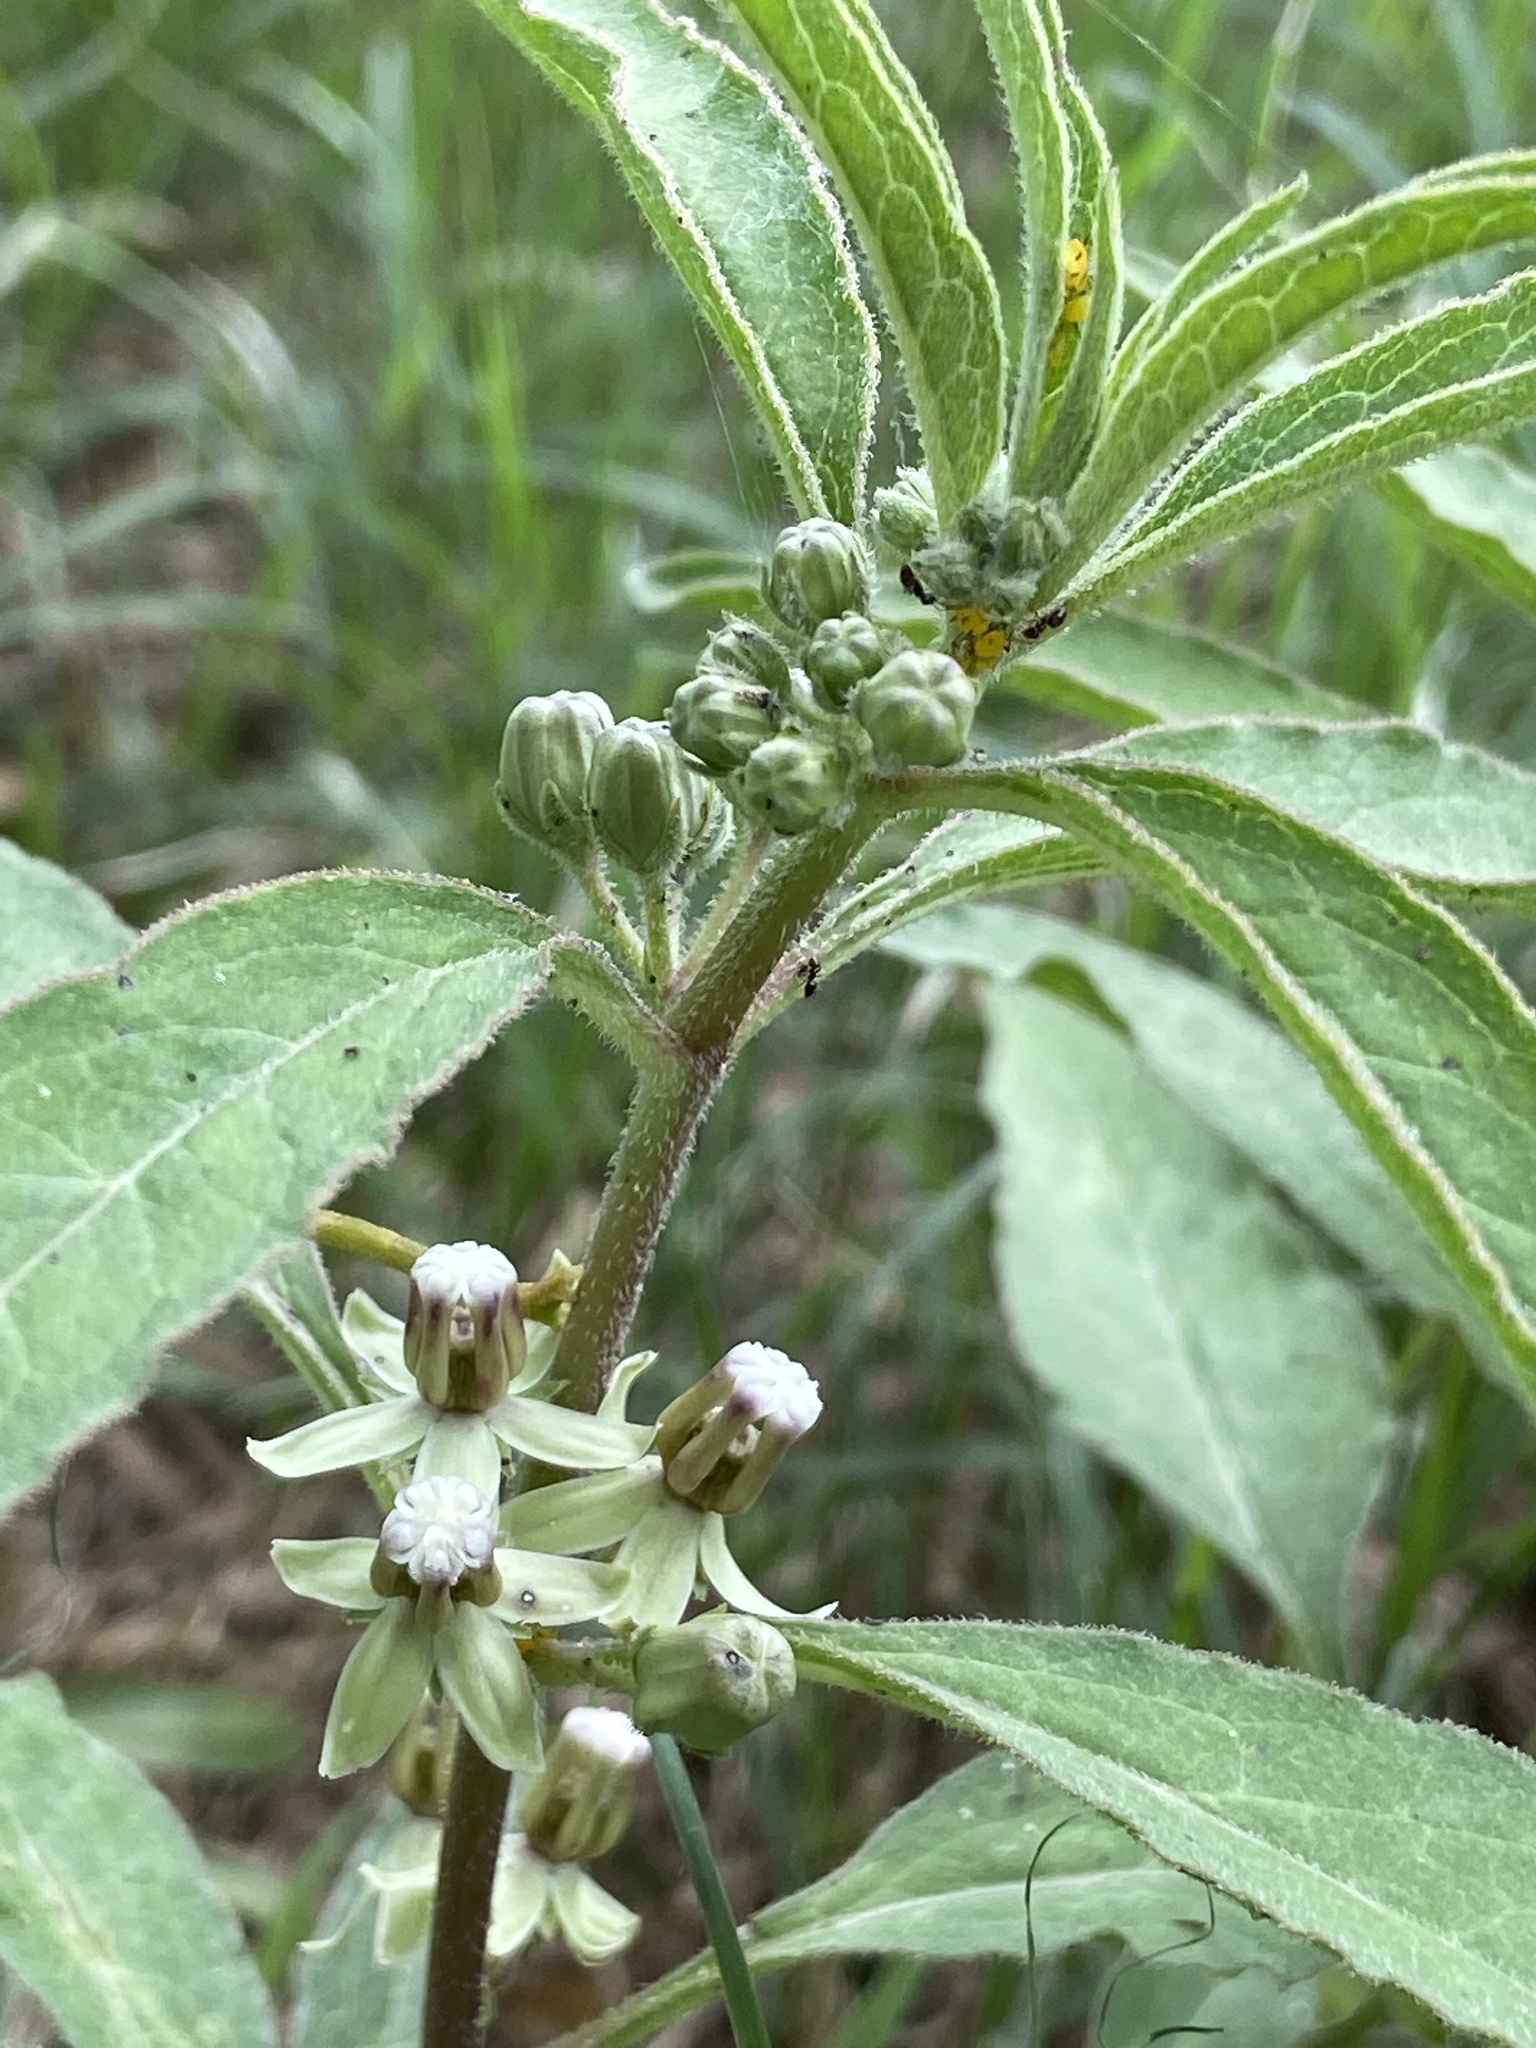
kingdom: Plantae
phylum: Tracheophyta
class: Magnoliopsida
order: Gentianales
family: Apocynaceae
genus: Asclepias
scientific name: Asclepias emoryi
